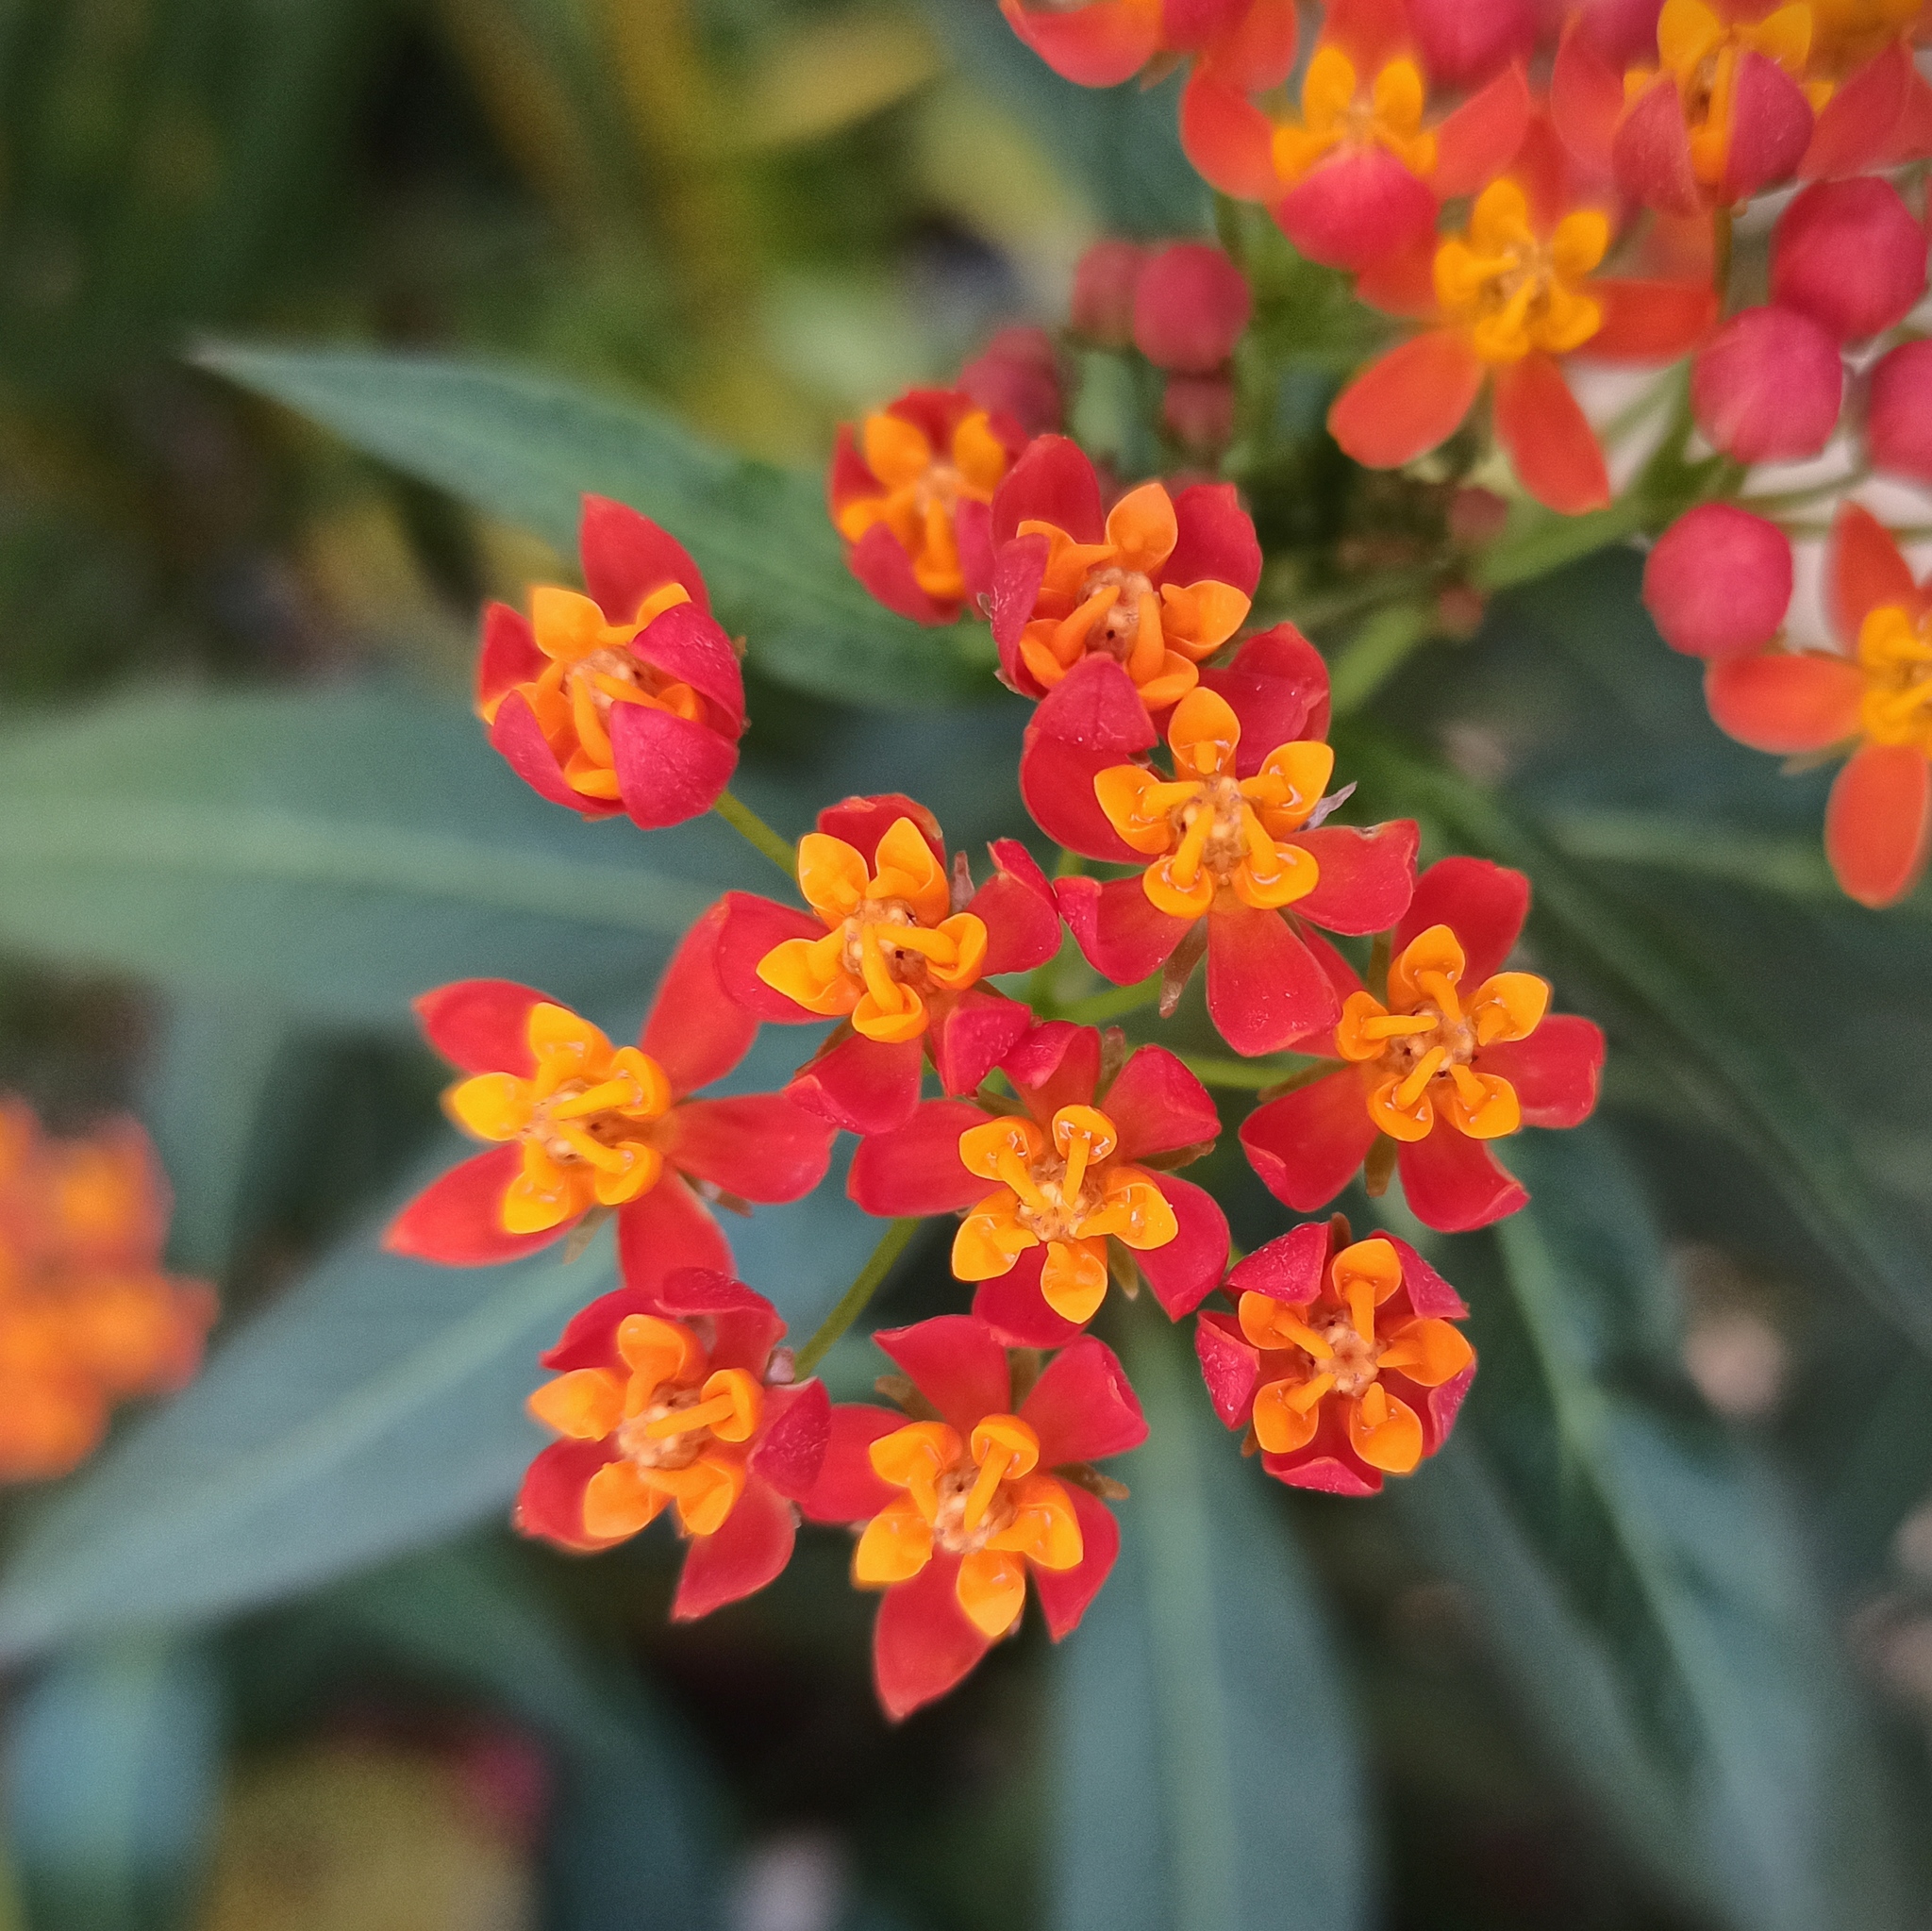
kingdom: Plantae
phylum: Tracheophyta
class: Magnoliopsida
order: Gentianales
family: Apocynaceae
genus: Asclepias
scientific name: Asclepias curassavica
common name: Bloodflower
